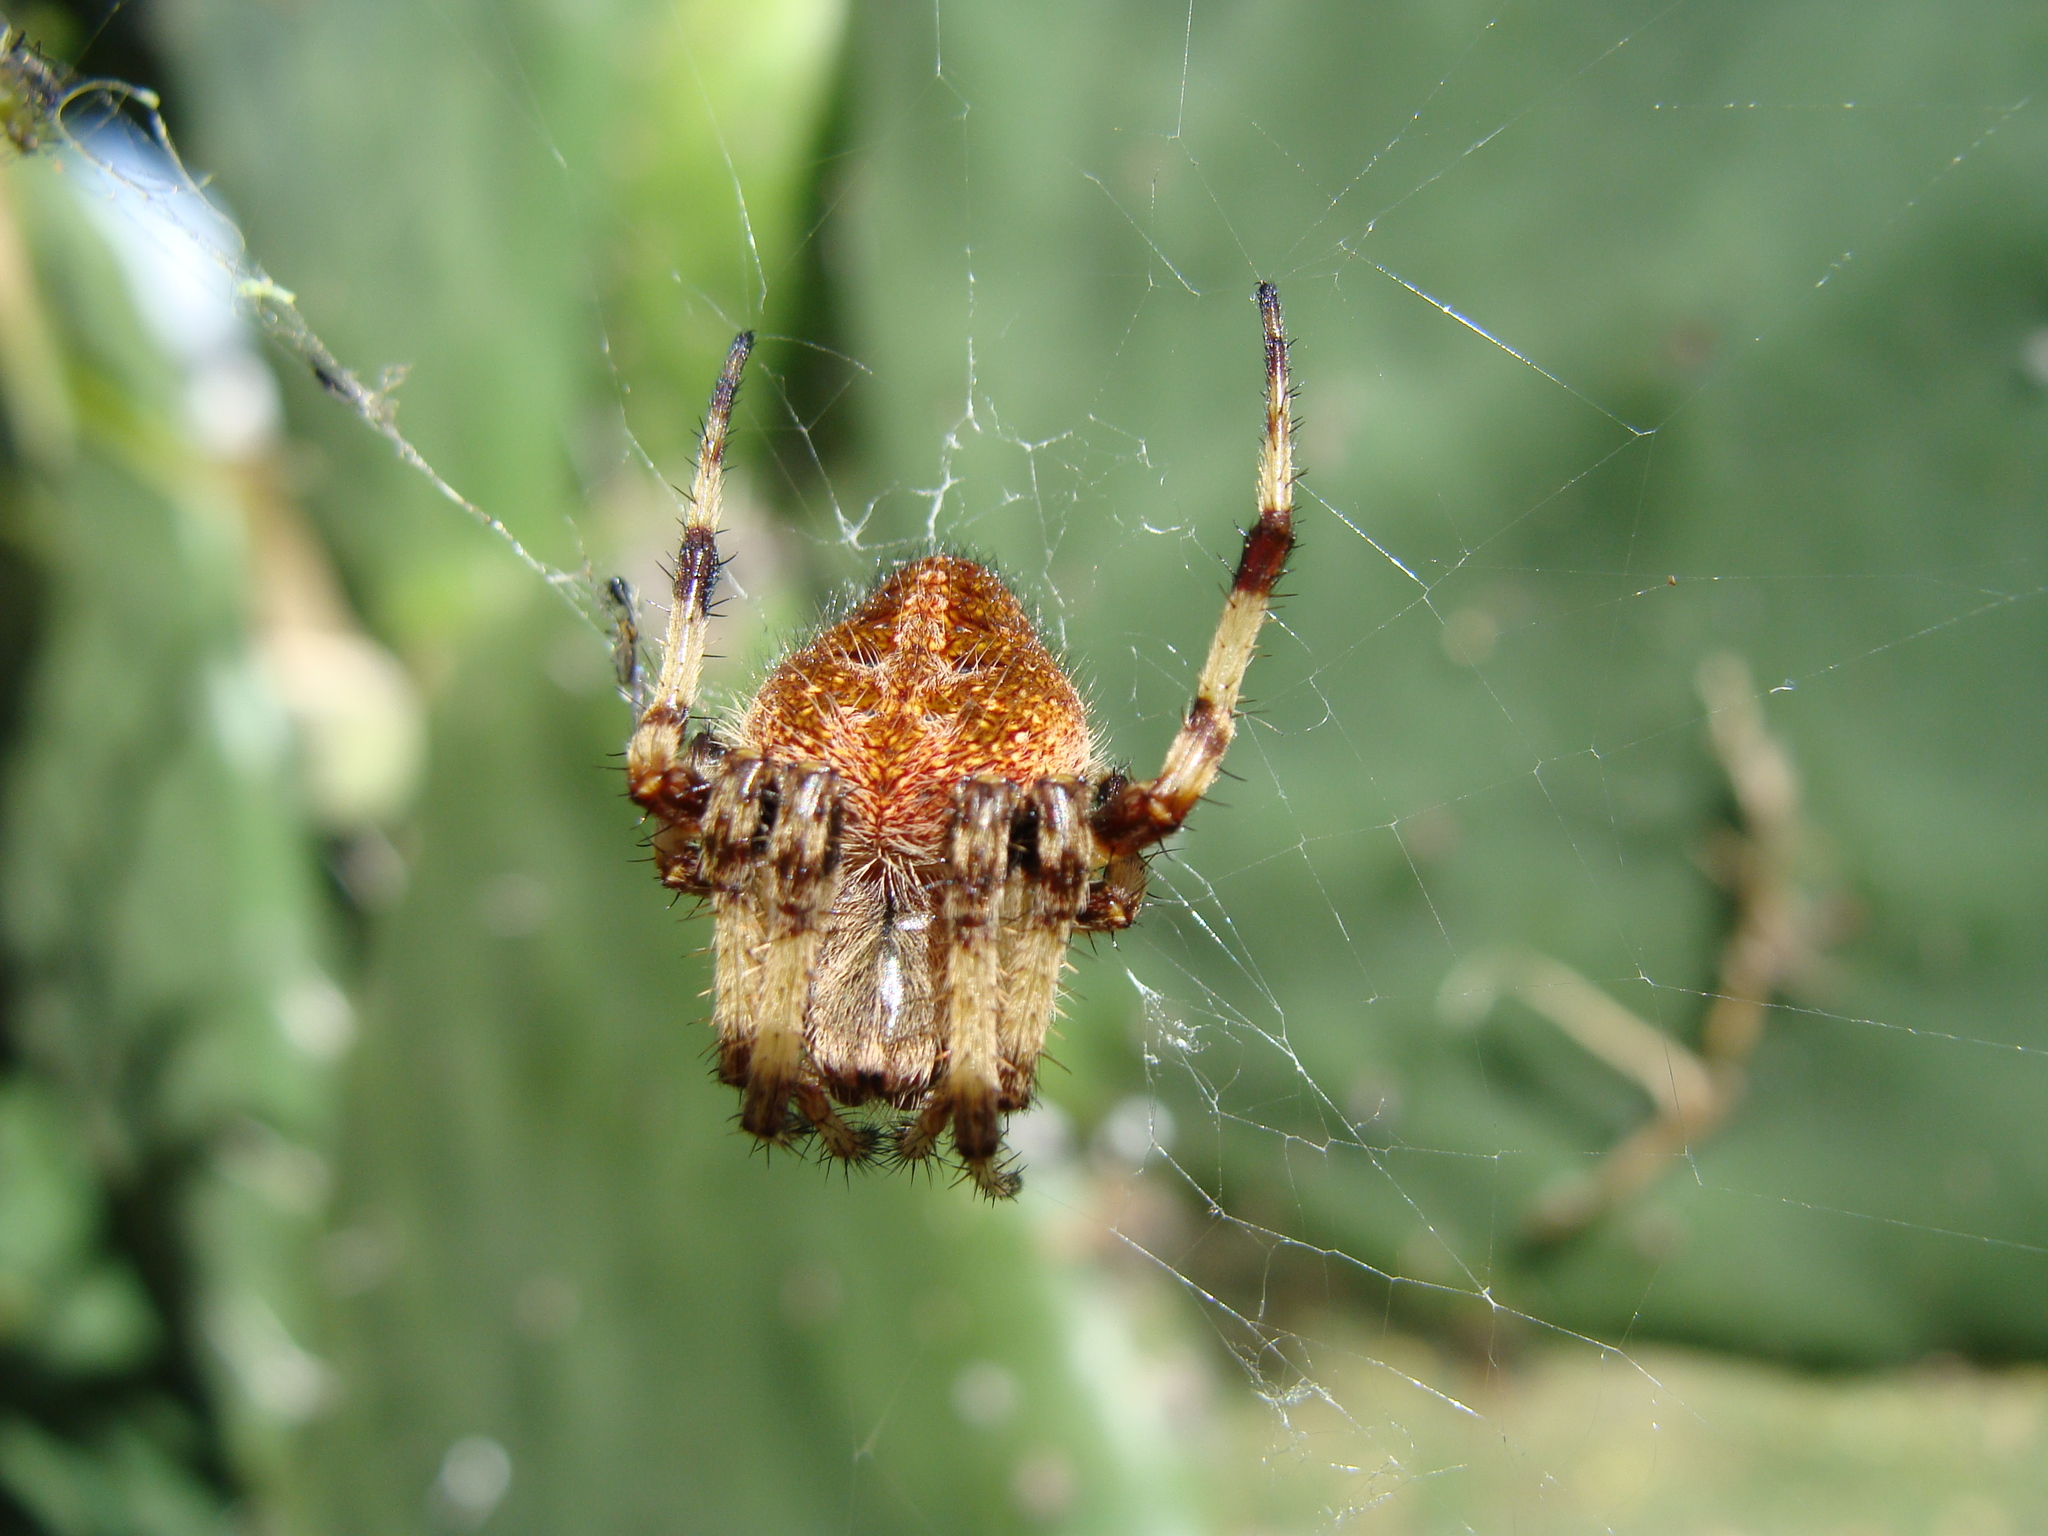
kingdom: Animalia
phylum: Arthropoda
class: Arachnida
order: Araneae
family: Araneidae
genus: Neoscona
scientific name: Neoscona orizabensis
